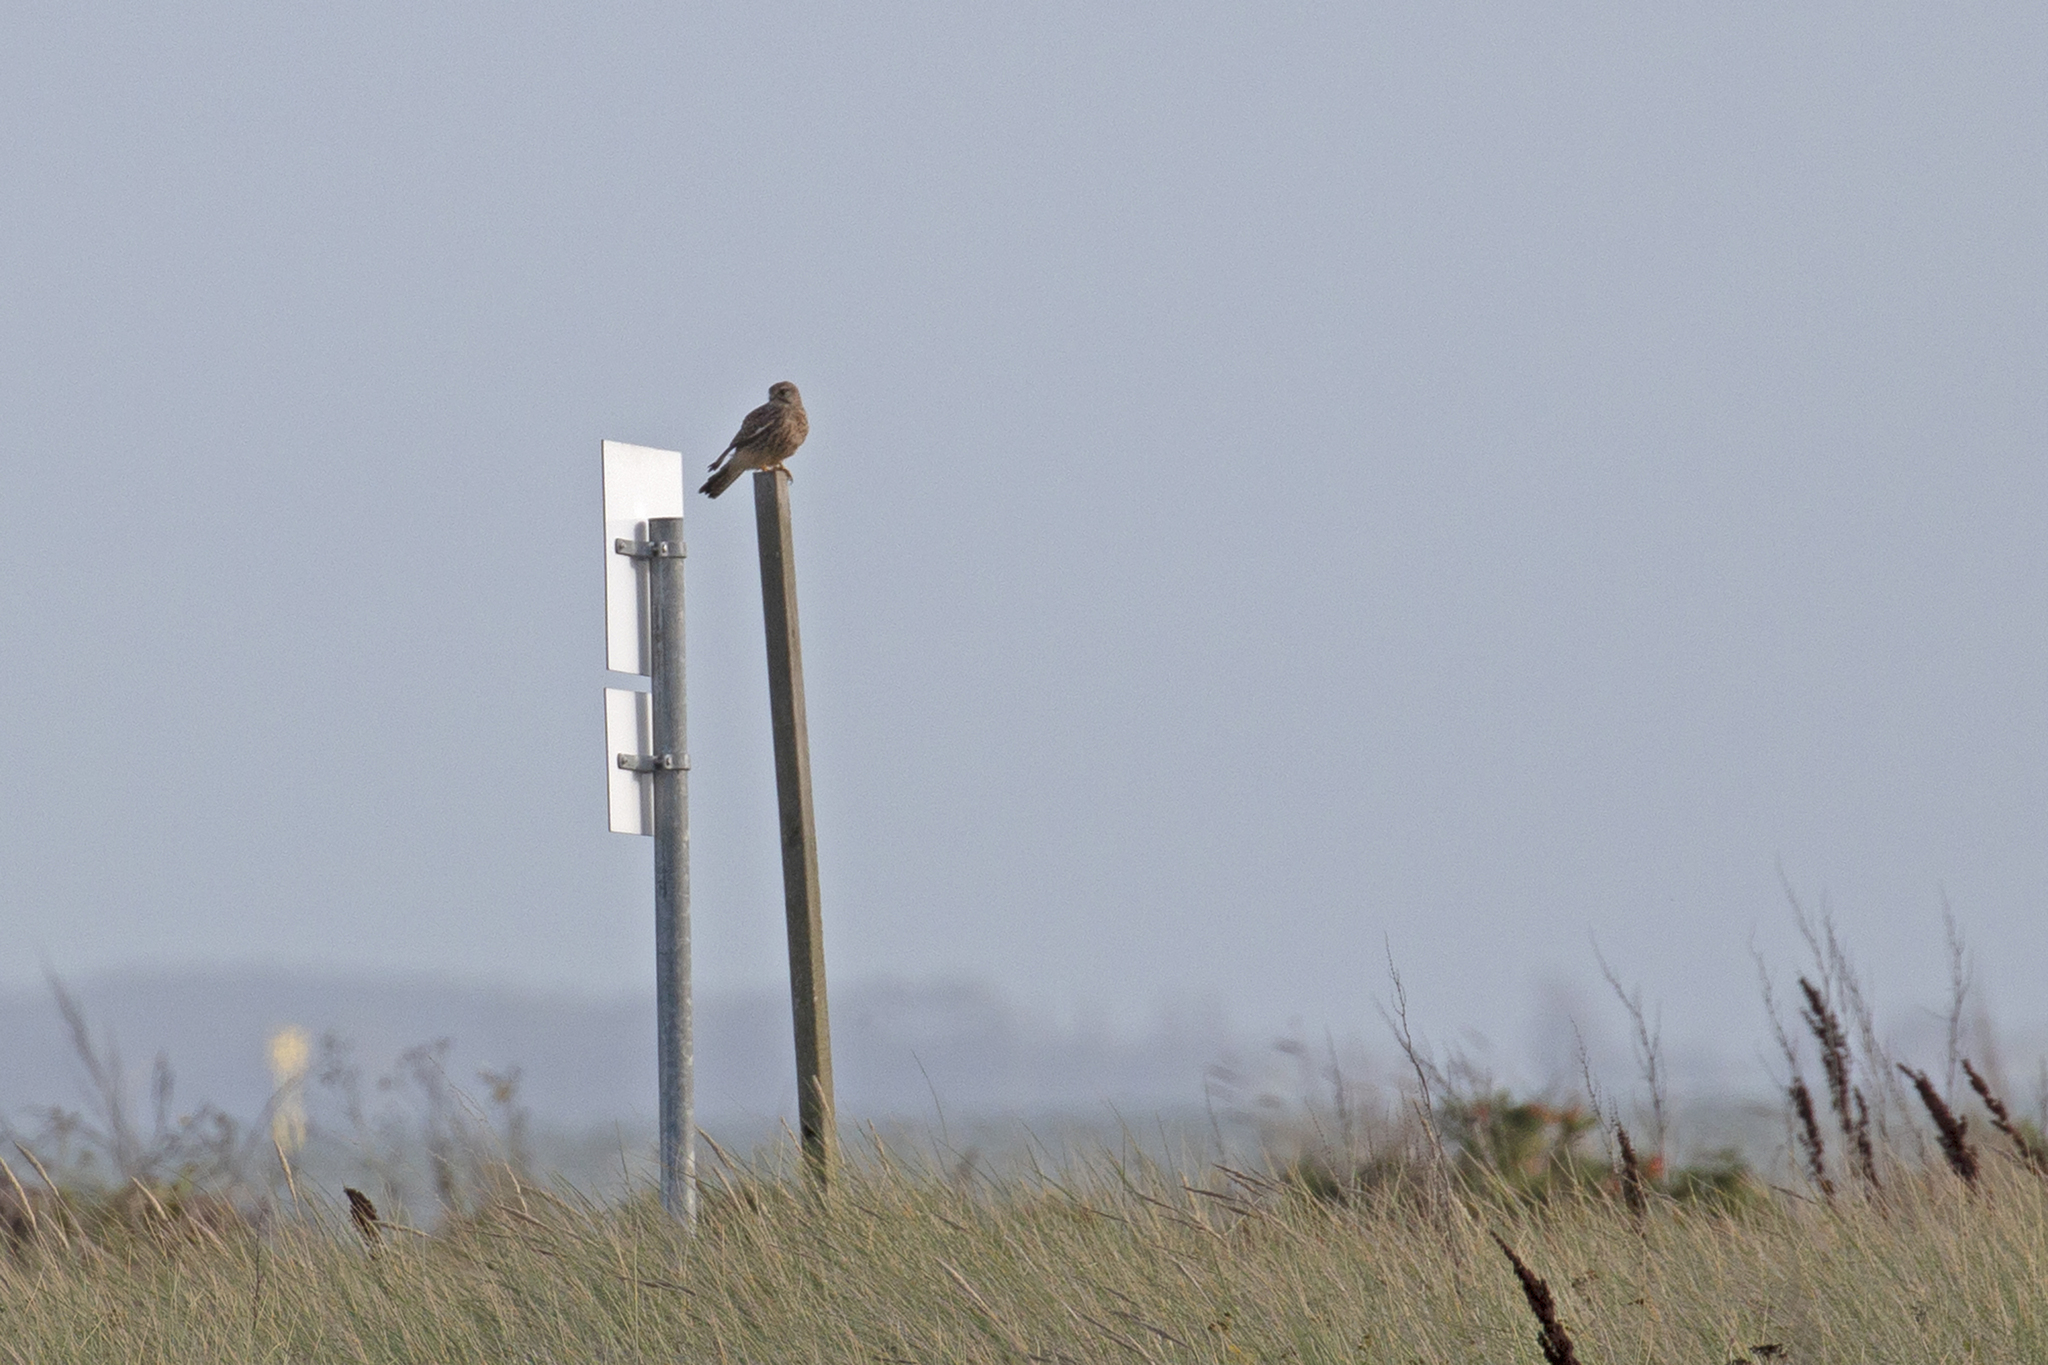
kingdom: Animalia
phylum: Chordata
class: Aves
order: Falconiformes
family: Falconidae
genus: Falco
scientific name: Falco tinnunculus
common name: Common kestrel
